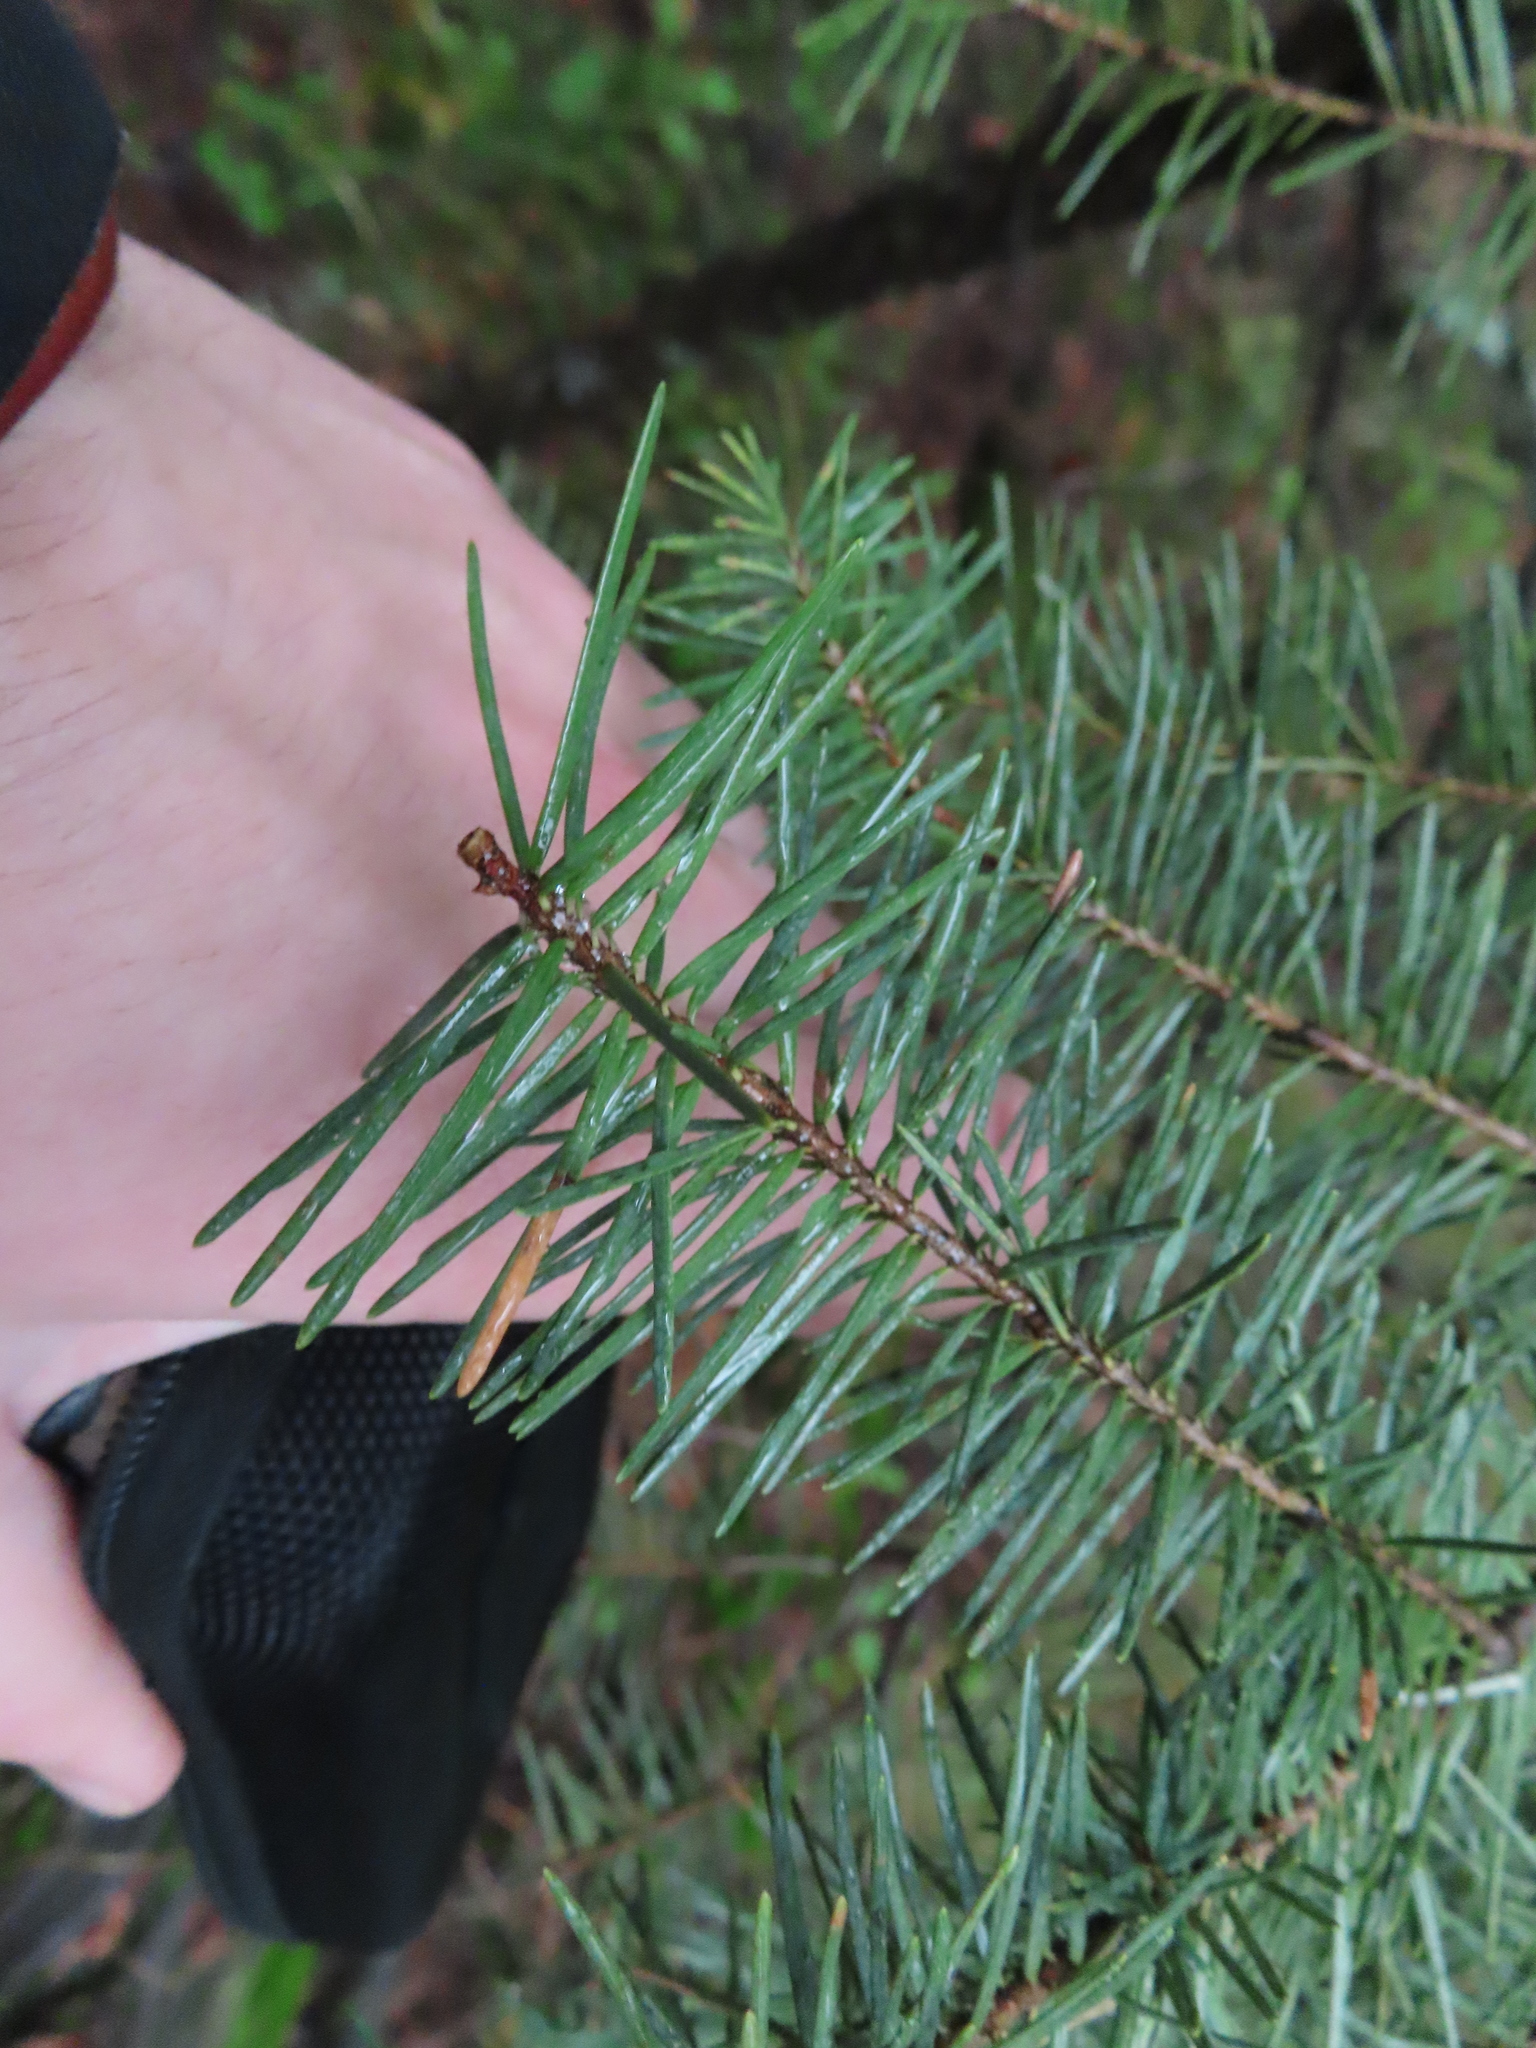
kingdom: Plantae
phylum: Tracheophyta
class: Pinopsida
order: Pinales
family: Pinaceae
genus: Pseudotsuga
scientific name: Pseudotsuga menziesii
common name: Douglas fir
